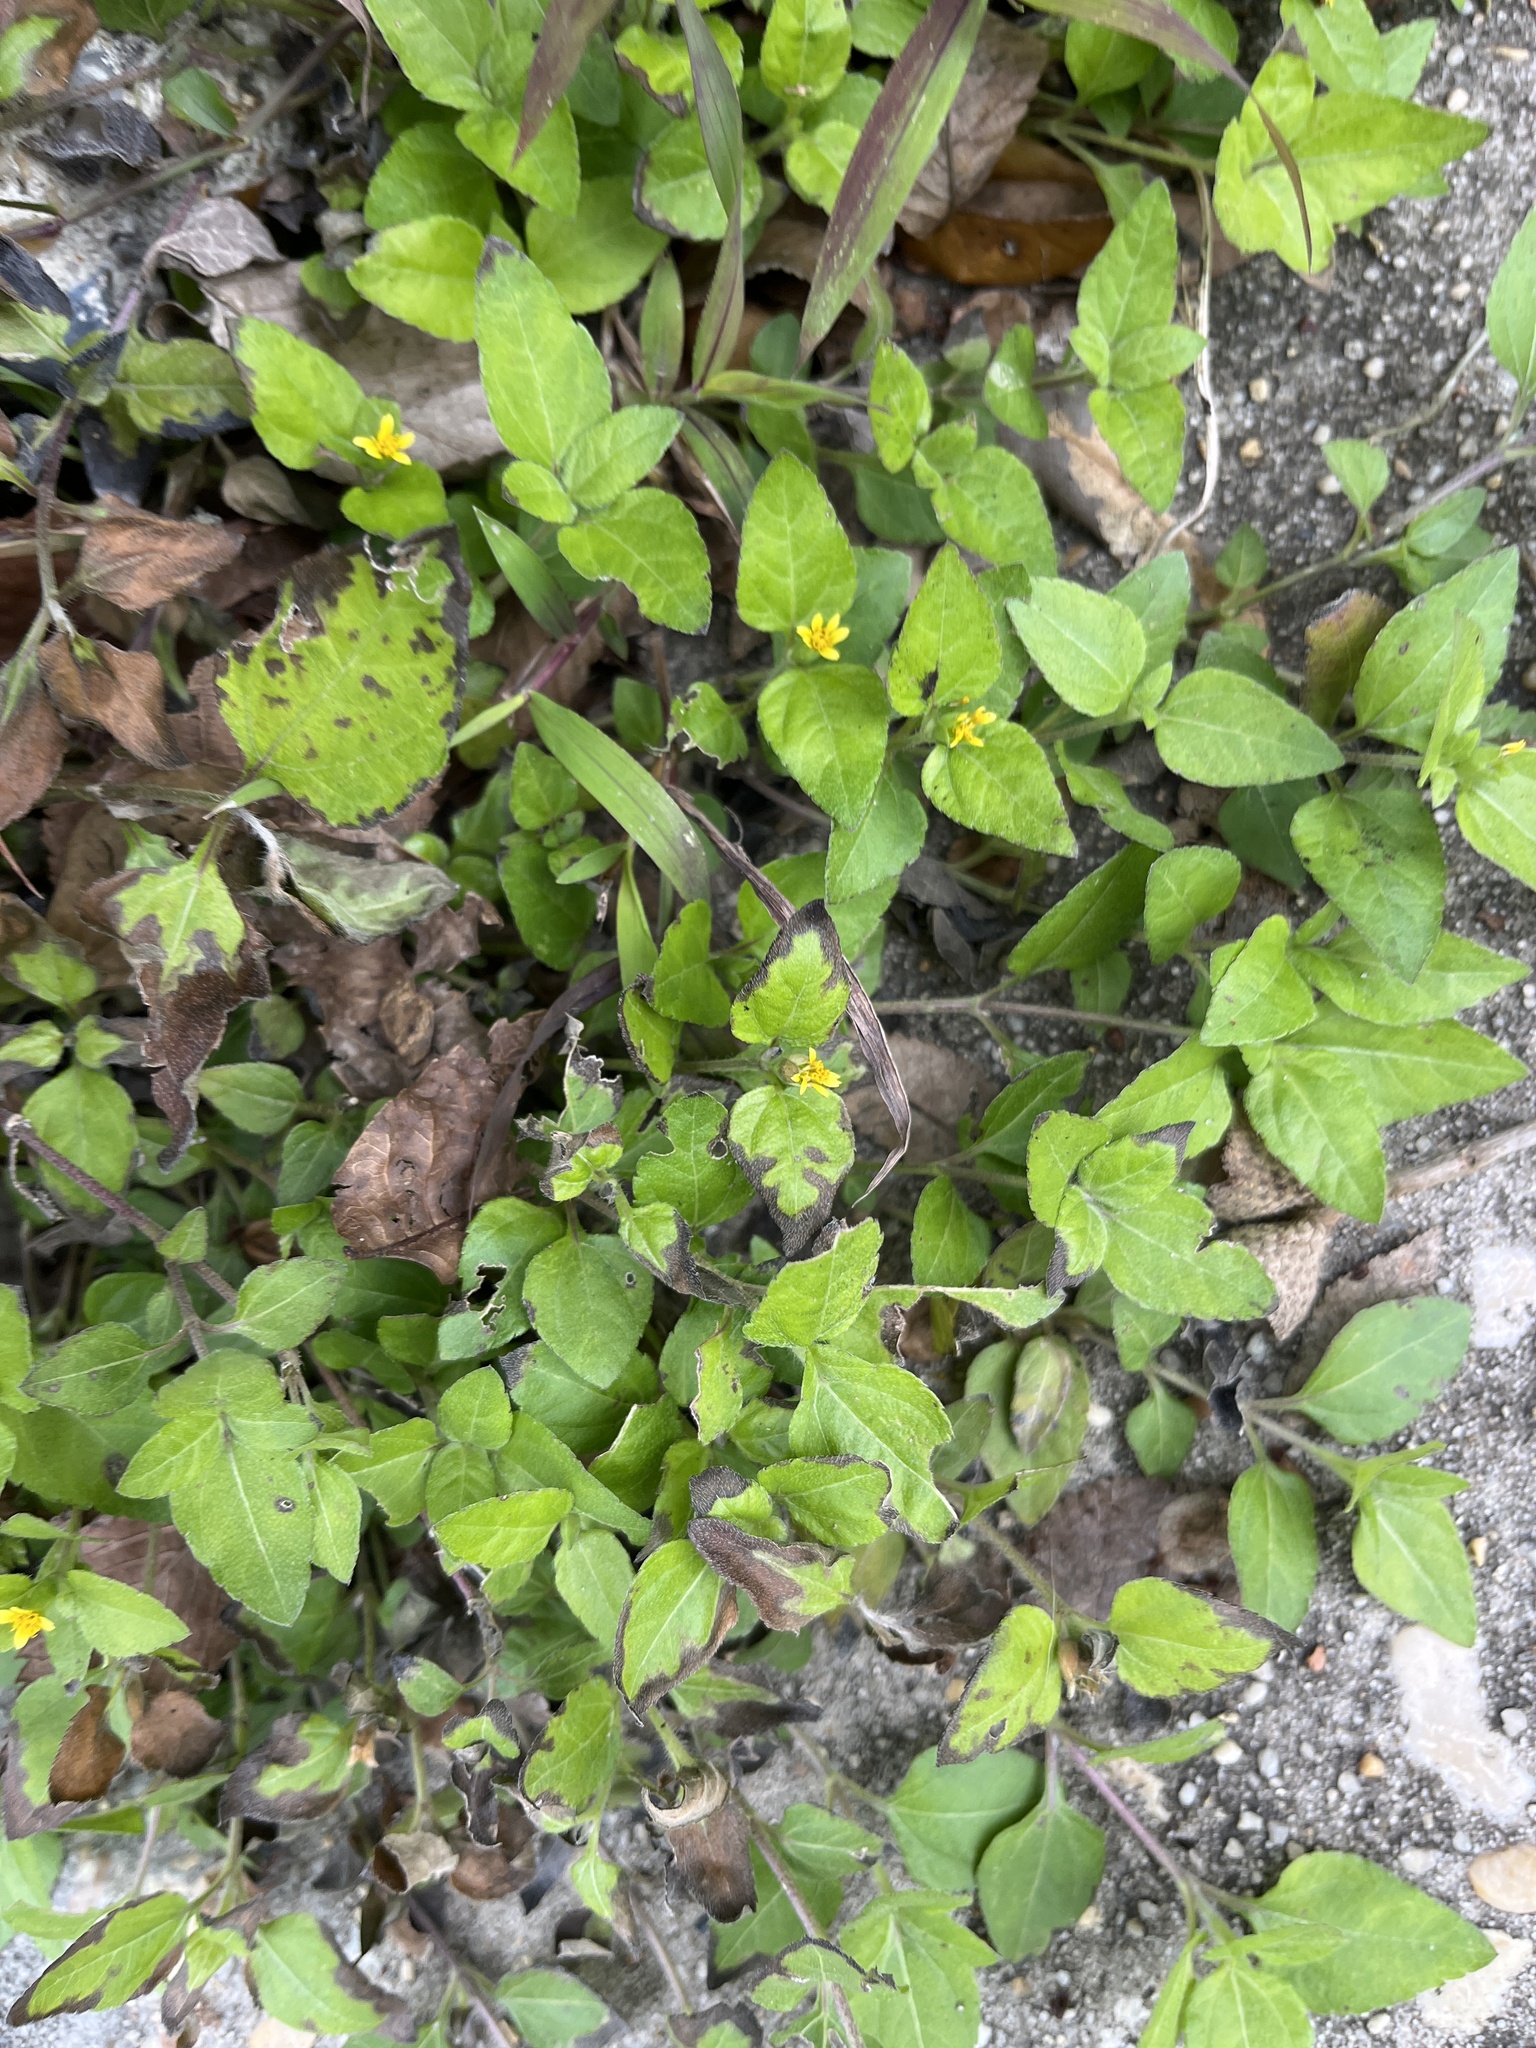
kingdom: Plantae
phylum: Tracheophyta
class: Magnoliopsida
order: Asterales
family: Asteraceae
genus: Calyptocarpus
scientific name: Calyptocarpus vialis
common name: Straggler daisy
